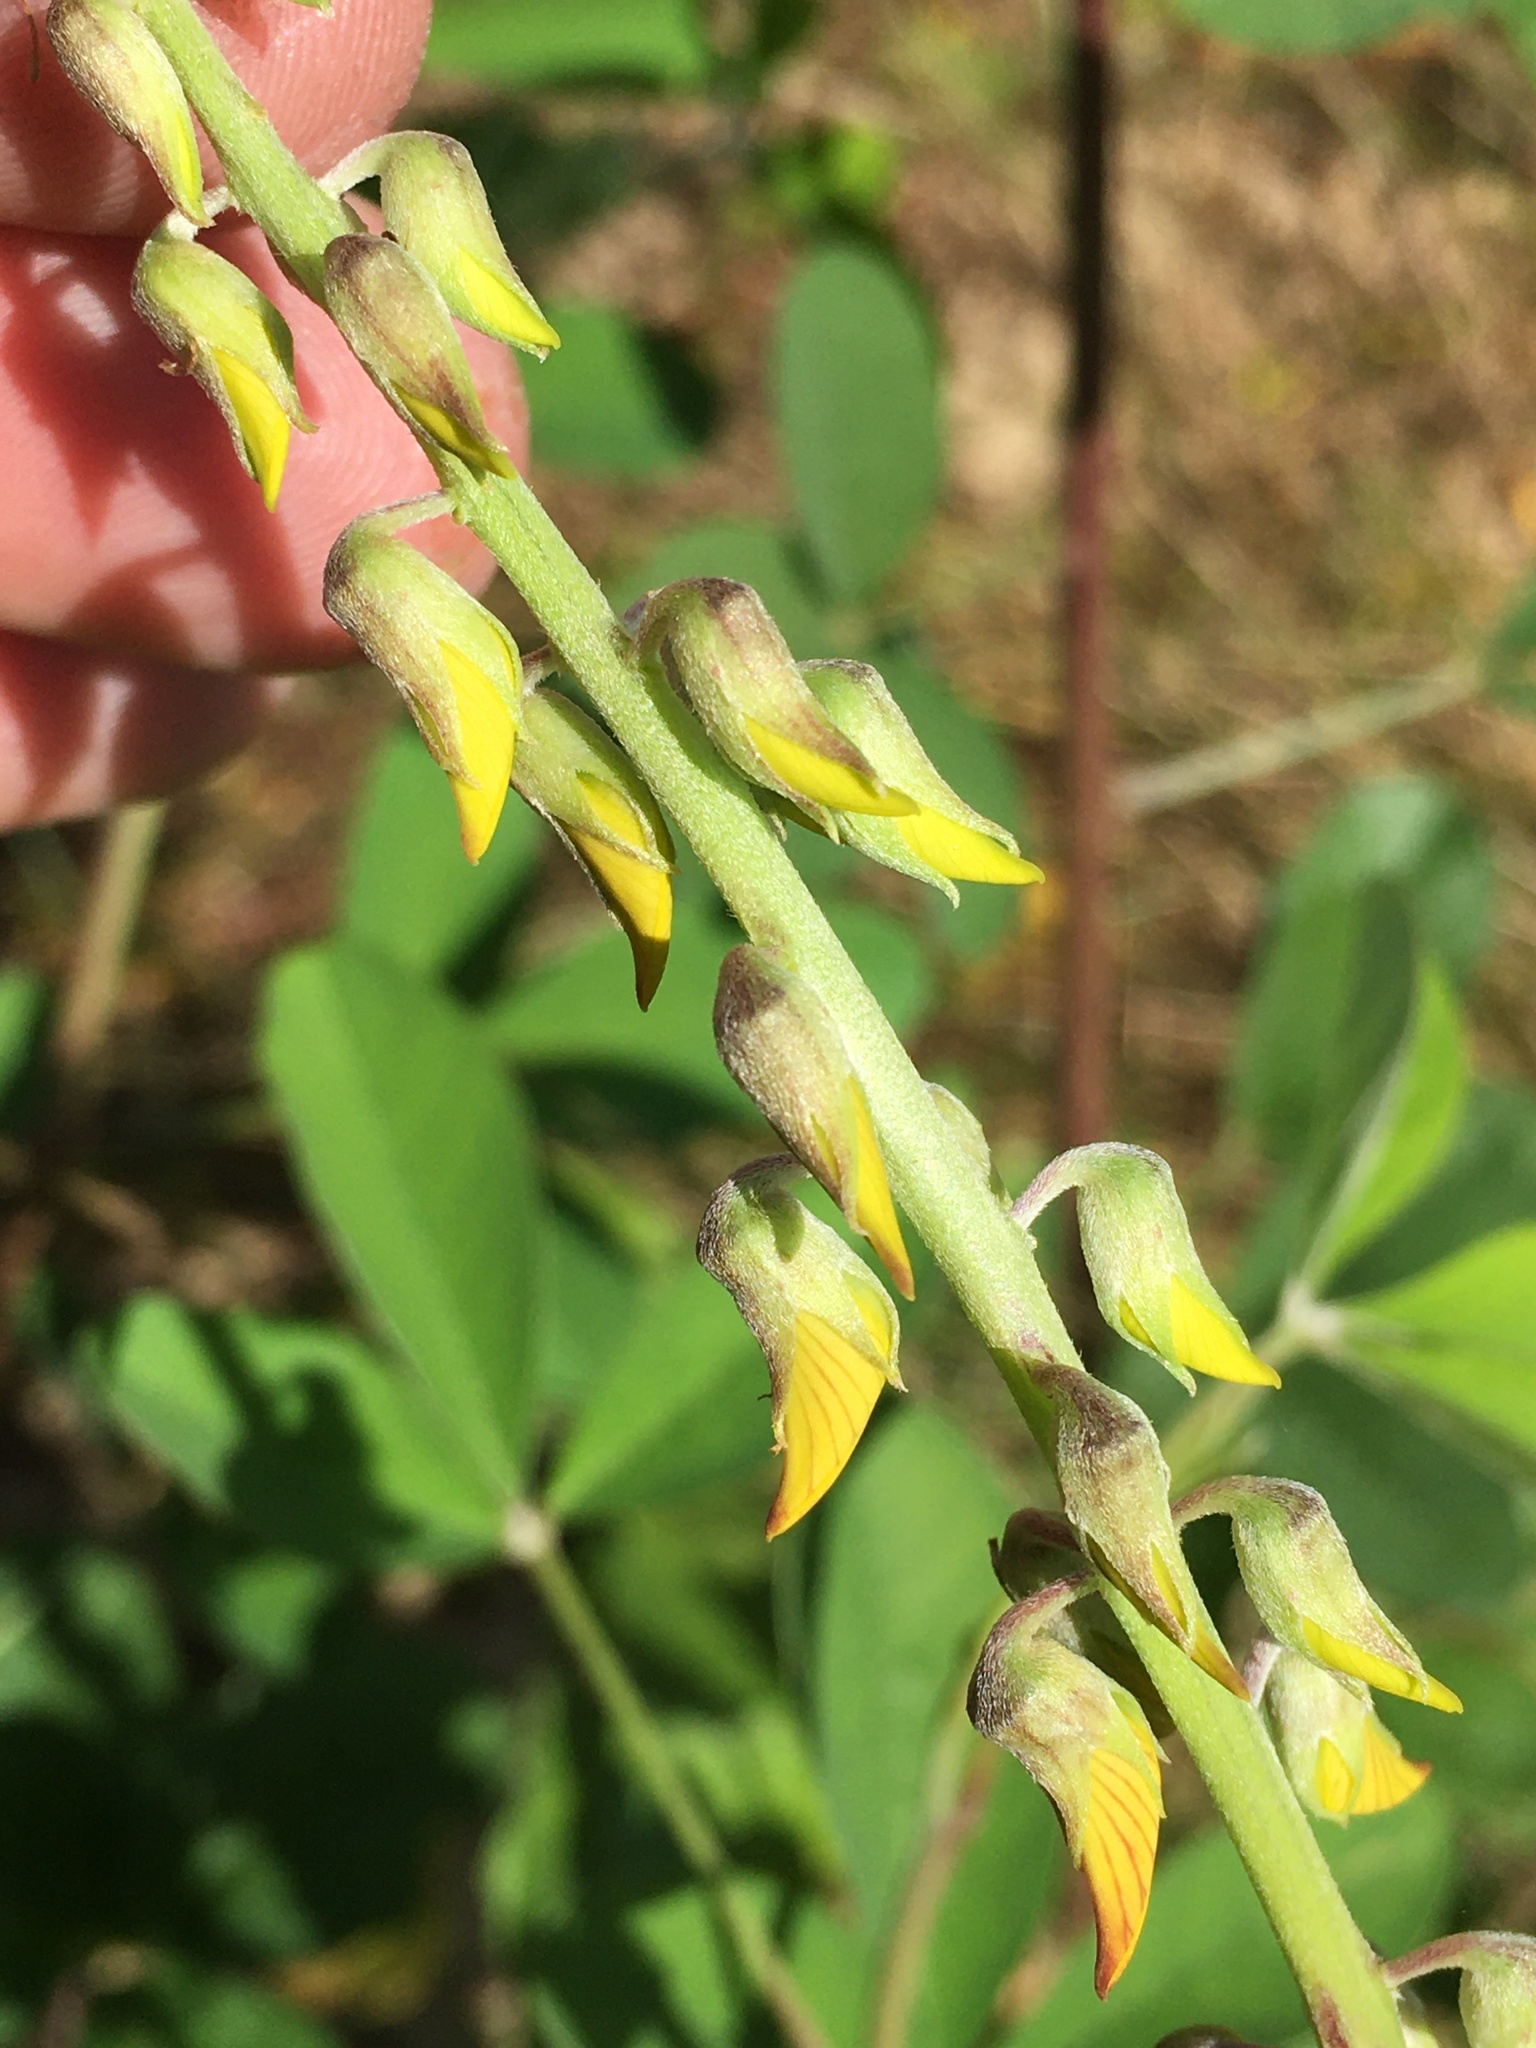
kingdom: Plantae
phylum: Tracheophyta
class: Magnoliopsida
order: Fabales
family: Fabaceae
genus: Crotalaria
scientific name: Crotalaria pallida
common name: Smooth rattlebox
